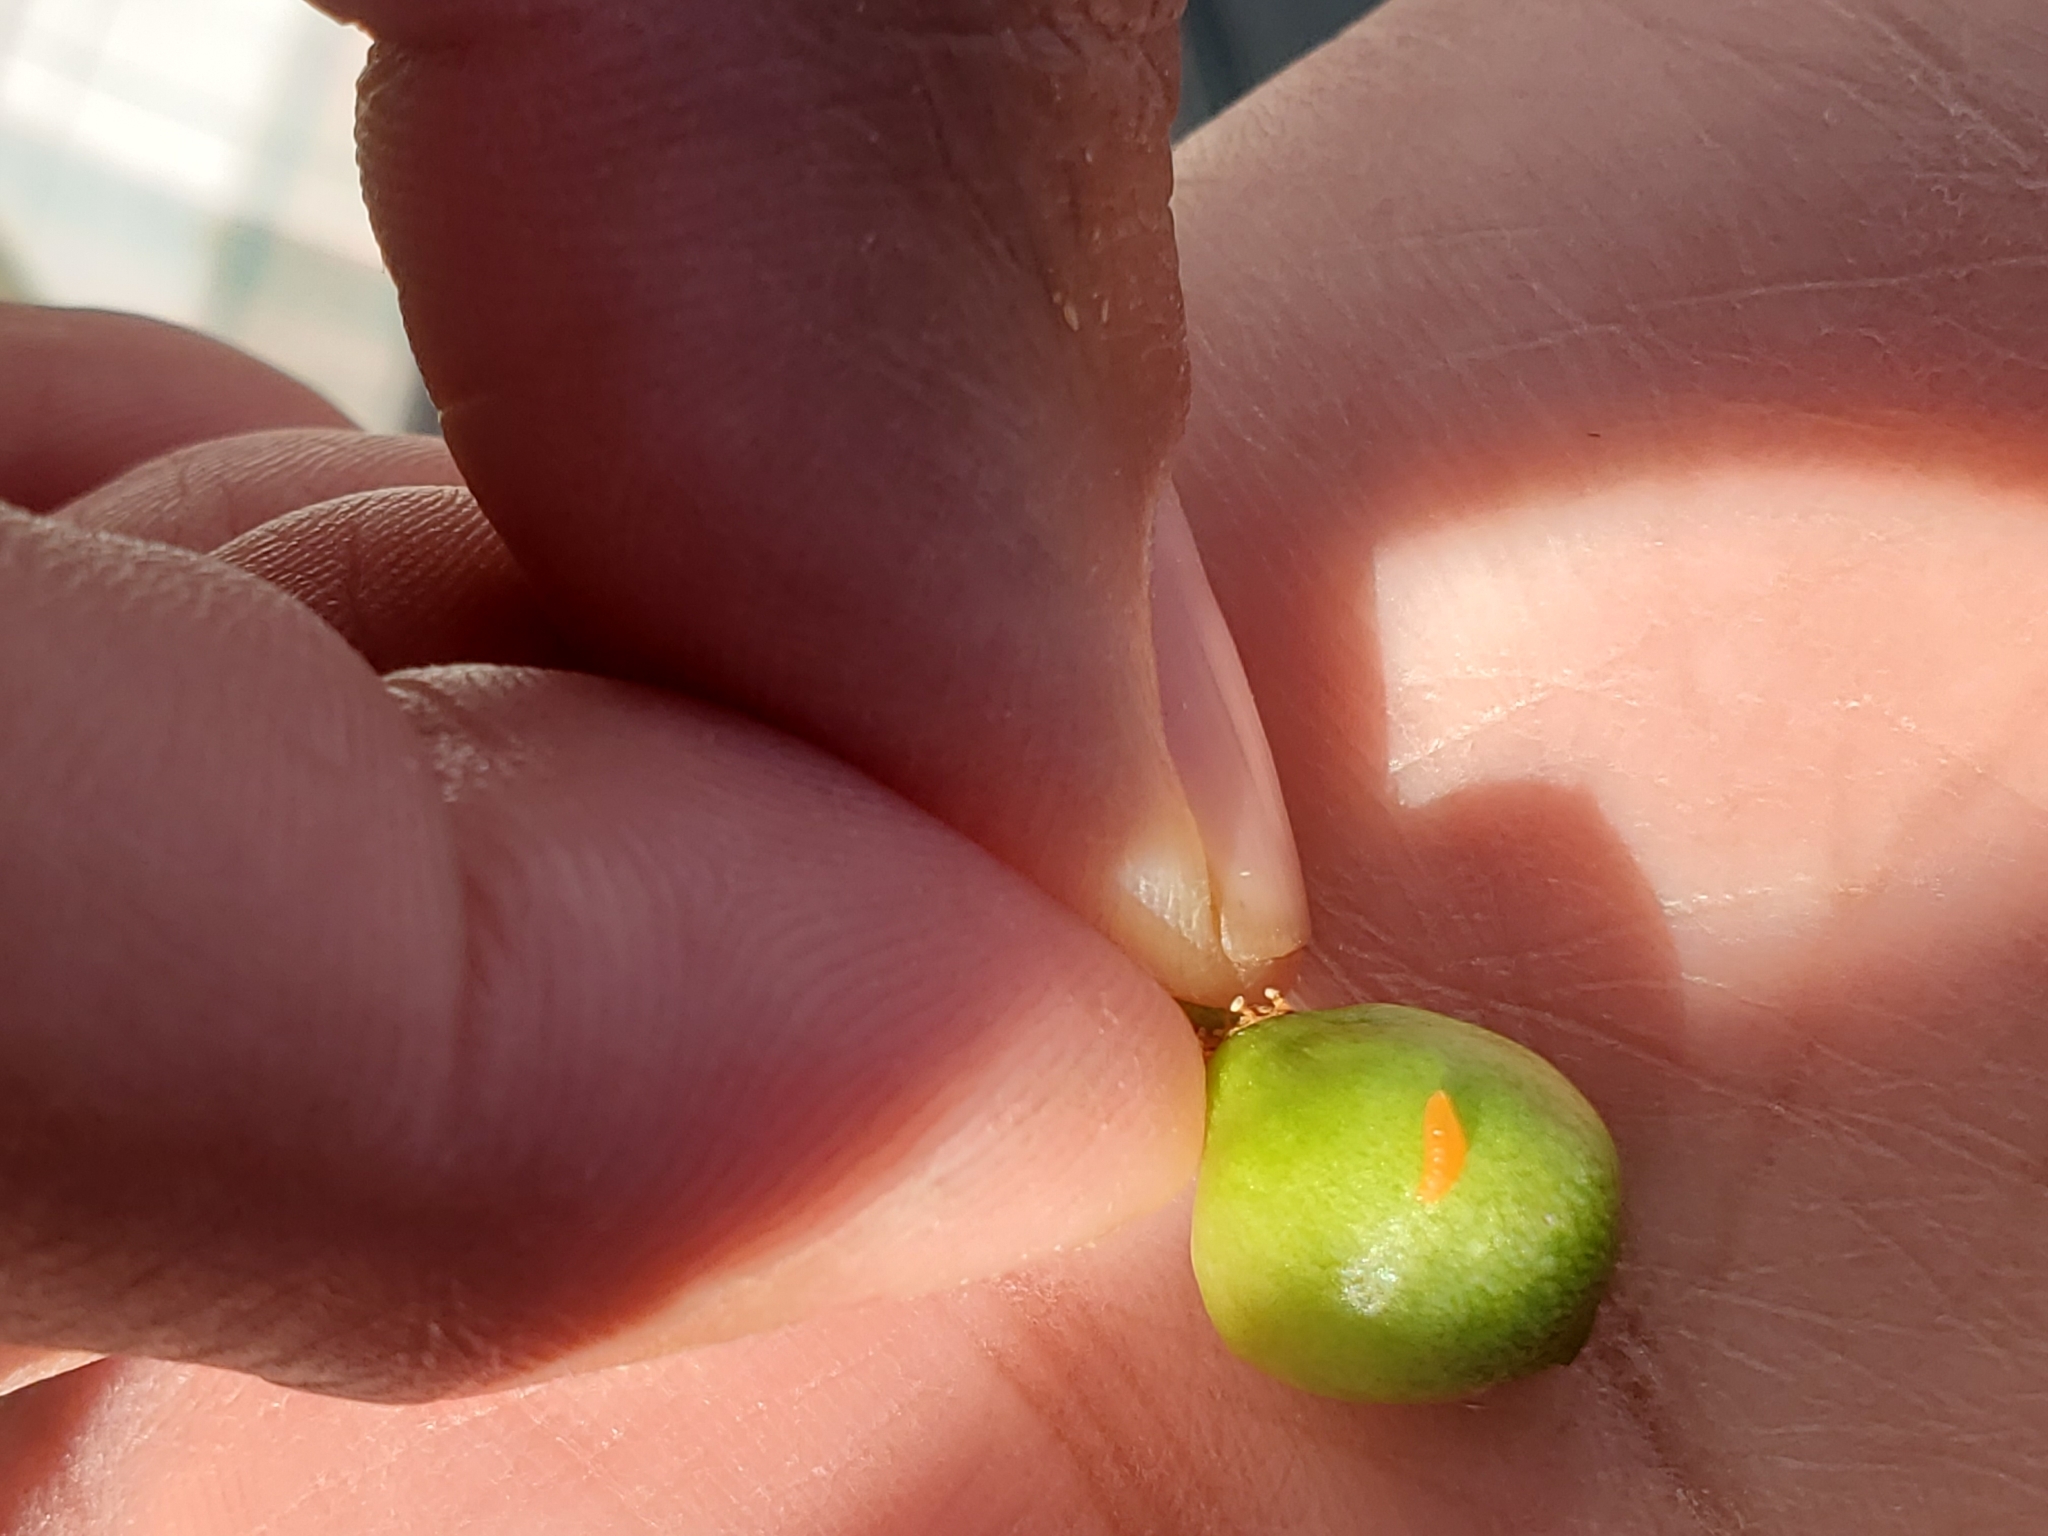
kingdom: Animalia
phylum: Arthropoda
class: Insecta
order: Diptera
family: Cecidomyiidae
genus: Contarinia
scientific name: Contarinia virginianiae
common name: Chokecherry midge
